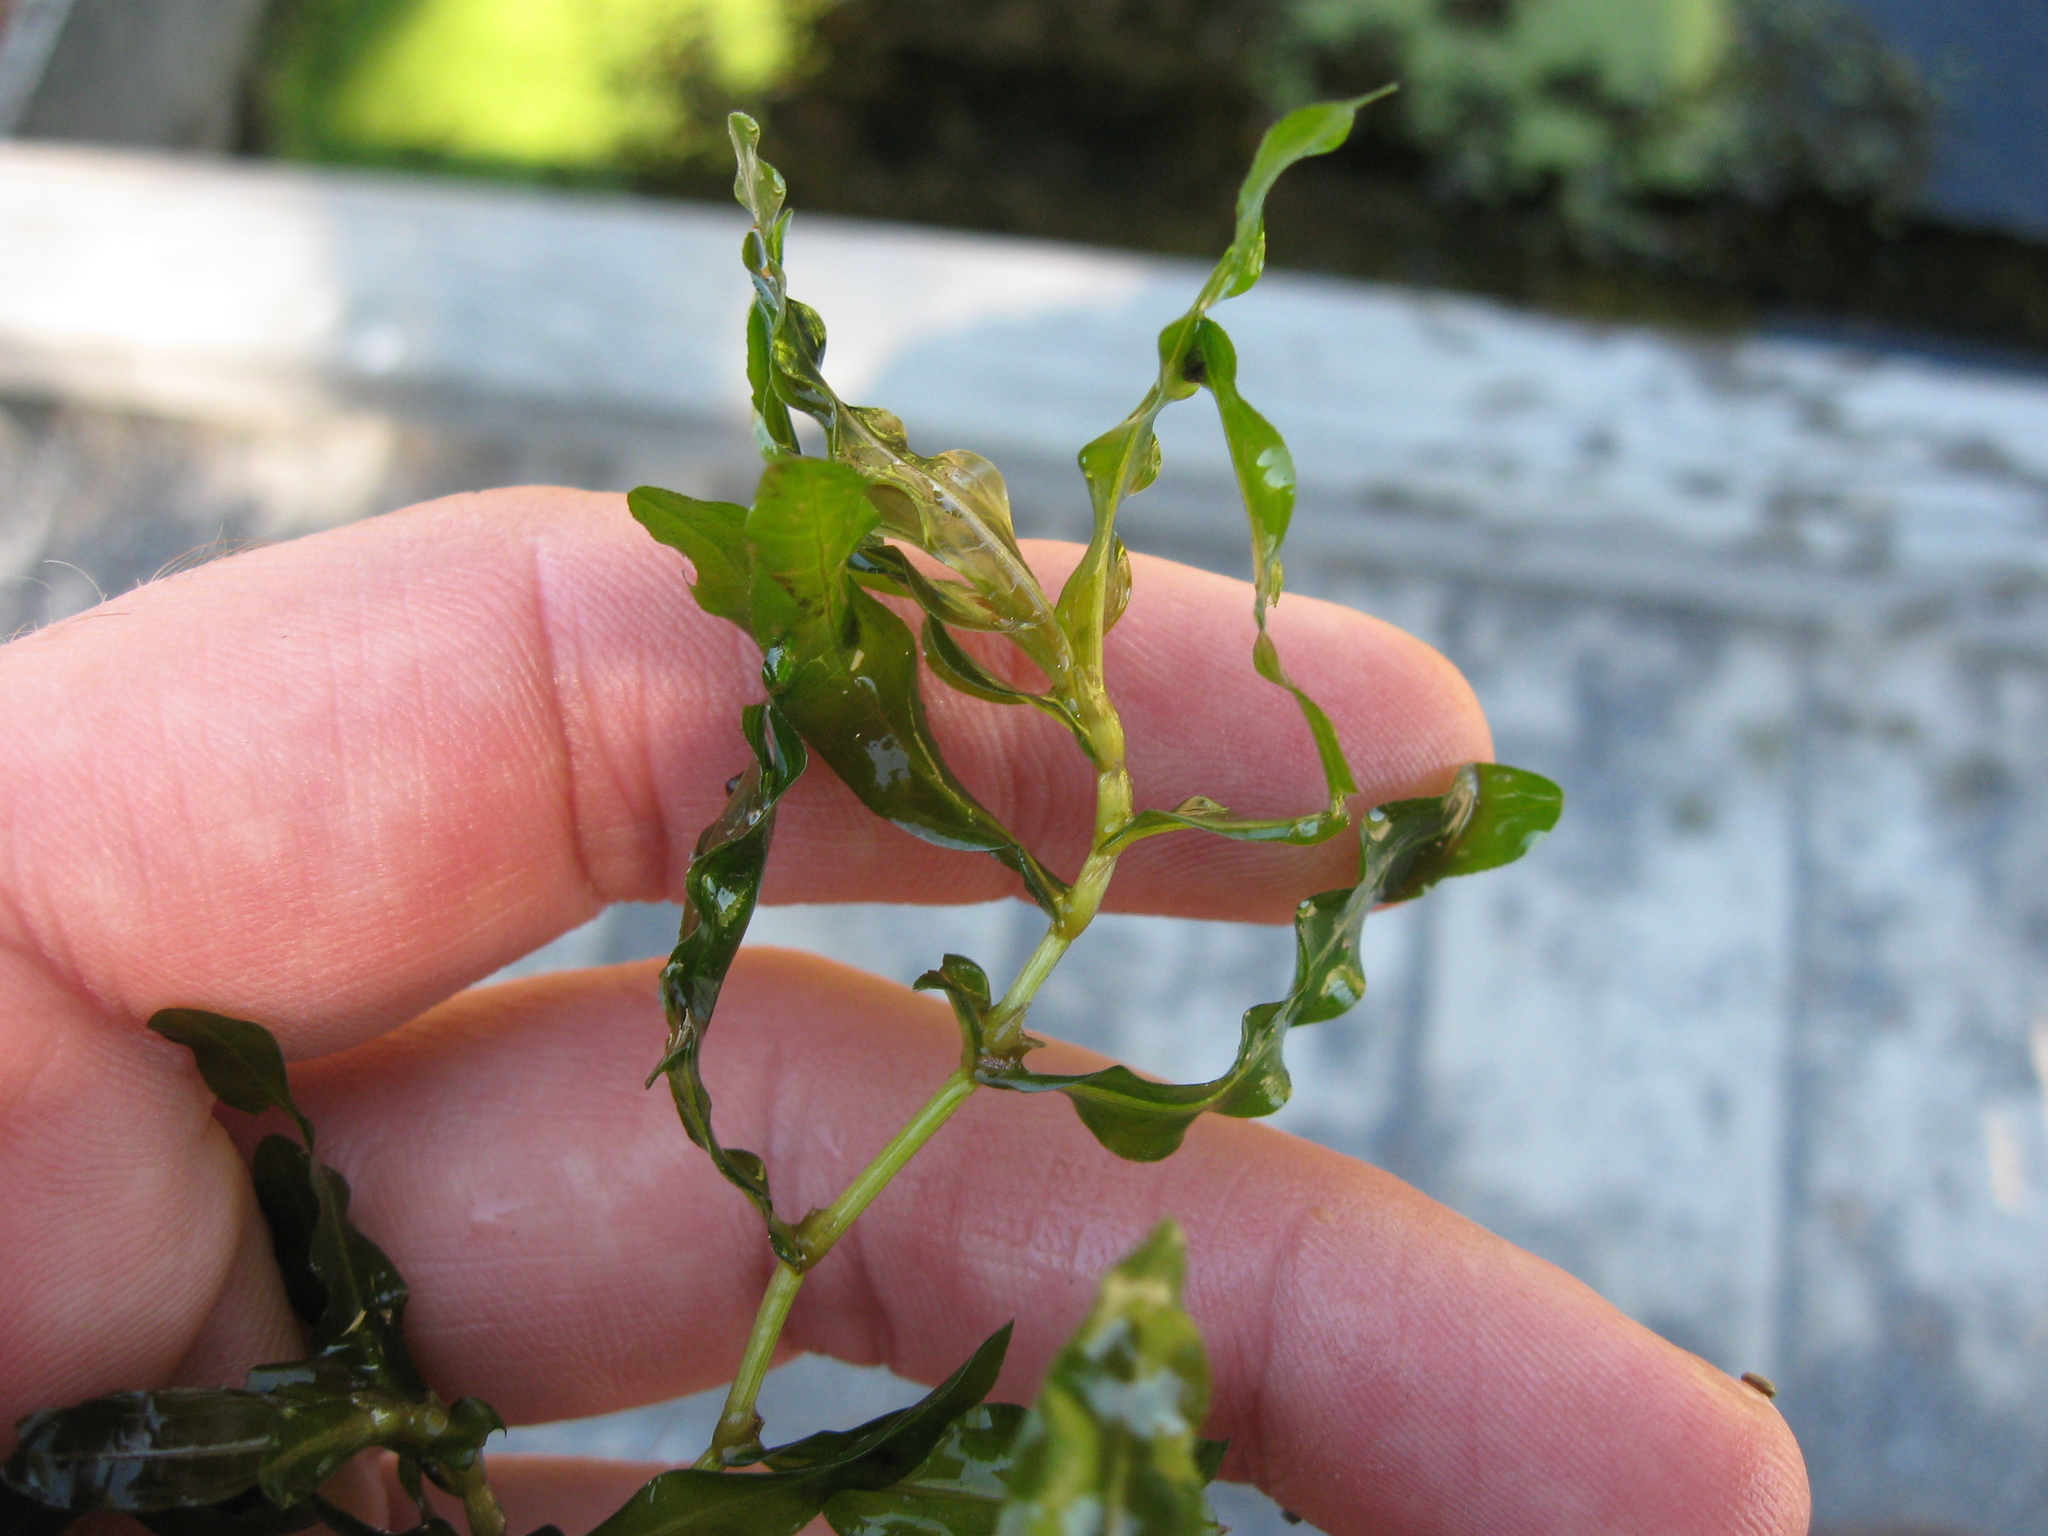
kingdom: Plantae
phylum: Tracheophyta
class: Liliopsida
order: Alismatales
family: Potamogetonaceae
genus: Potamogeton
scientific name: Potamogeton crispus
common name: Curled pondweed
